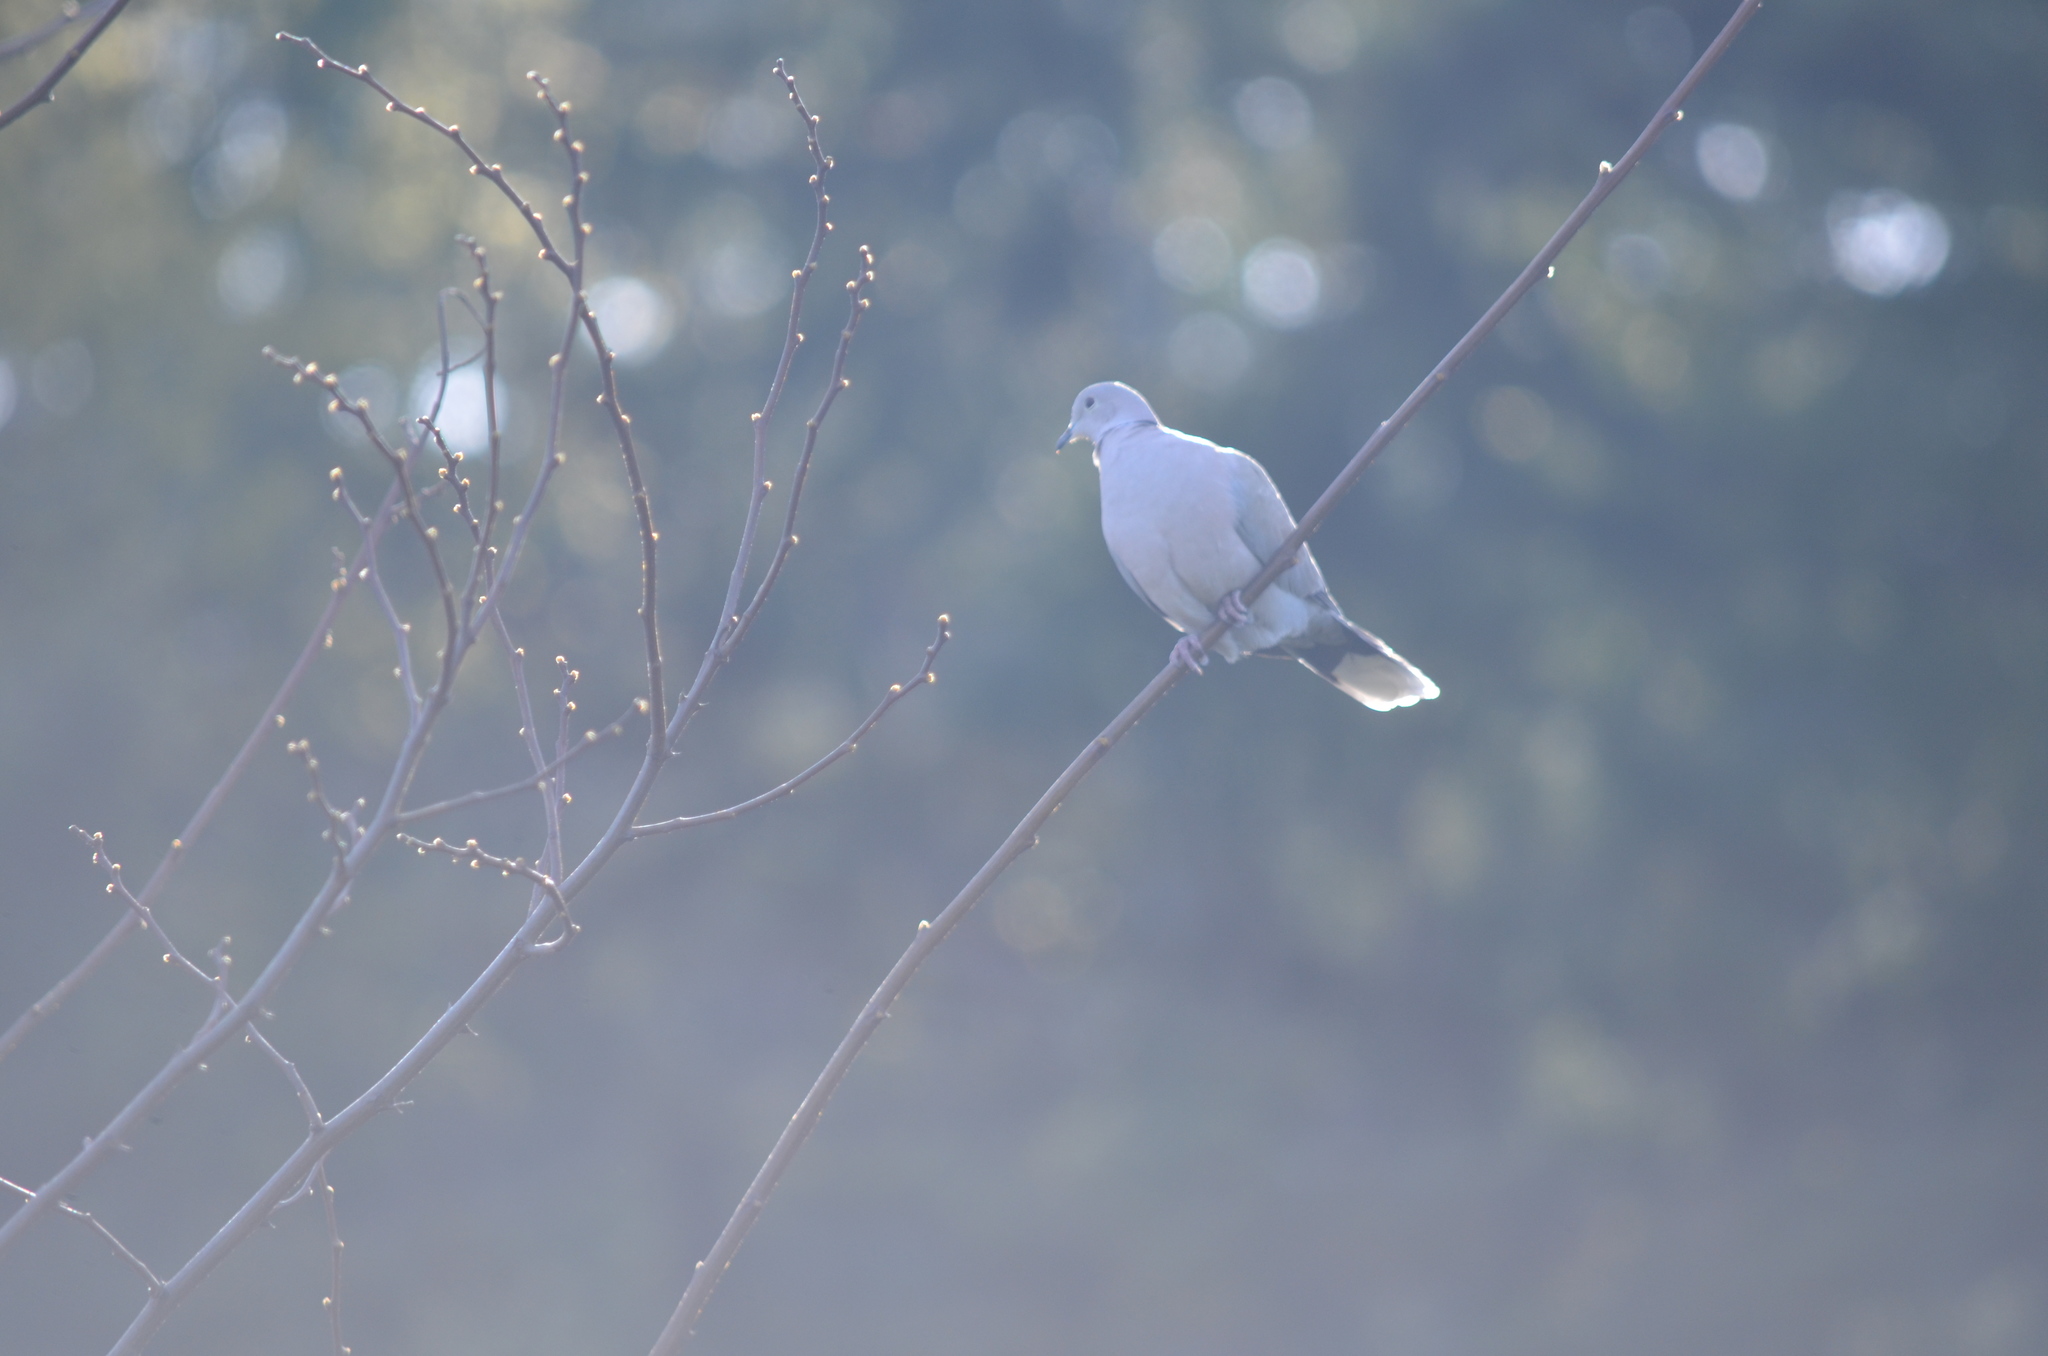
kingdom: Animalia
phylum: Chordata
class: Aves
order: Columbiformes
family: Columbidae
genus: Streptopelia
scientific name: Streptopelia decaocto
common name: Eurasian collared dove
